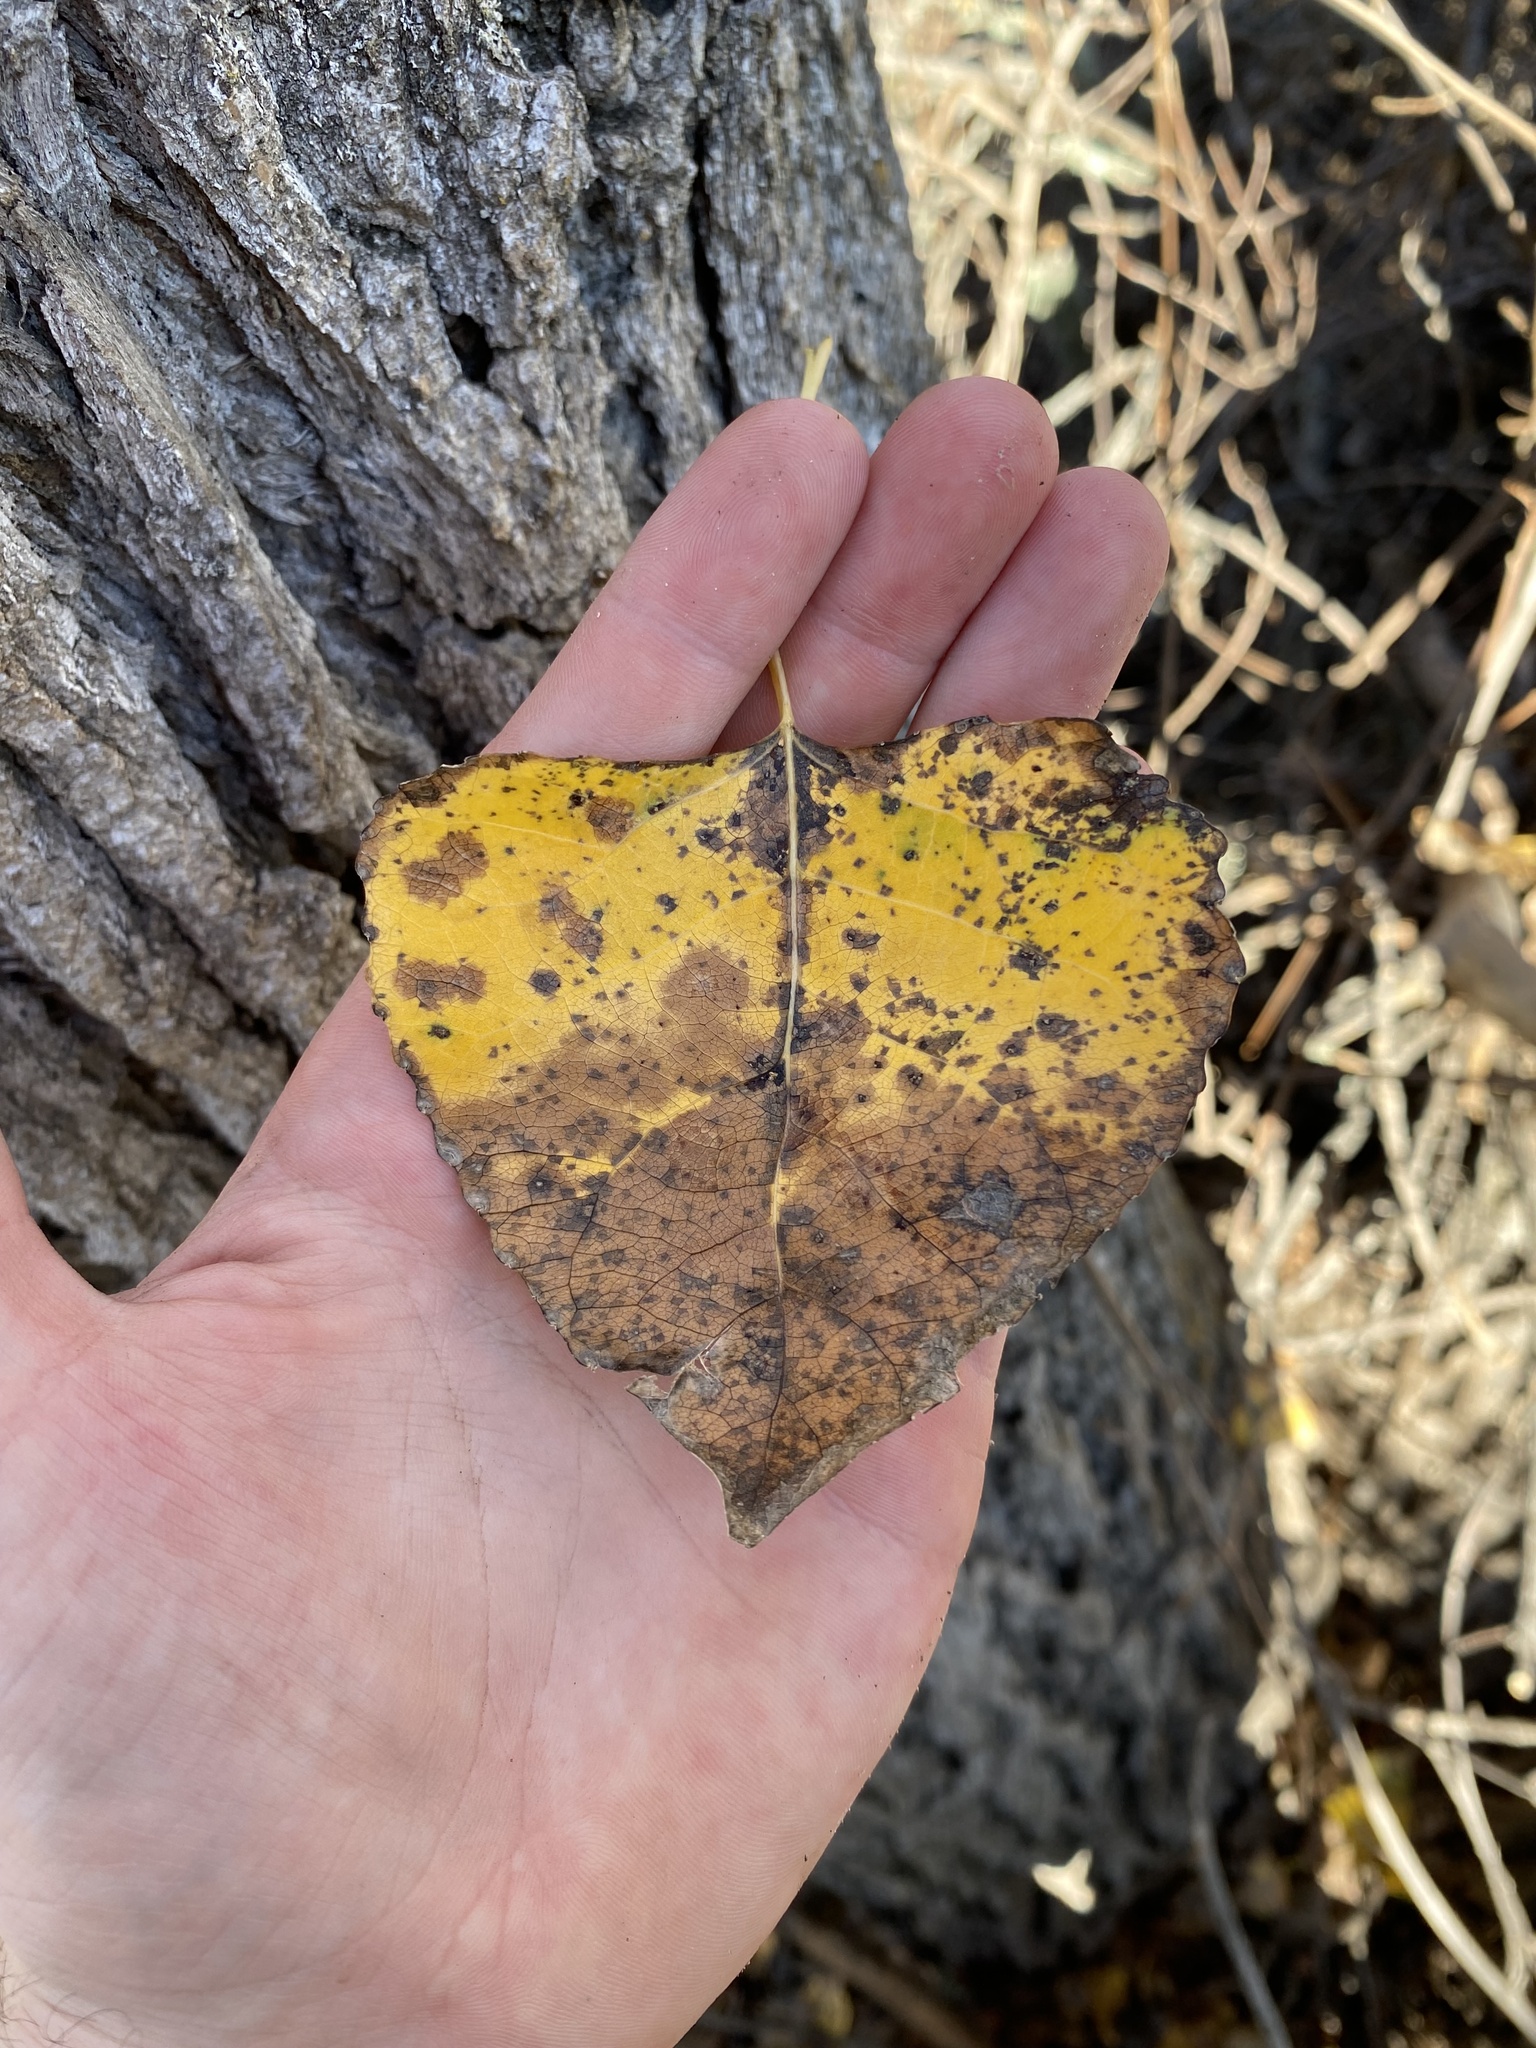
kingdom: Plantae
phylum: Tracheophyta
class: Magnoliopsida
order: Malpighiales
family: Salicaceae
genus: Populus
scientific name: Populus fremontii
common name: Fremont's cottonwood
